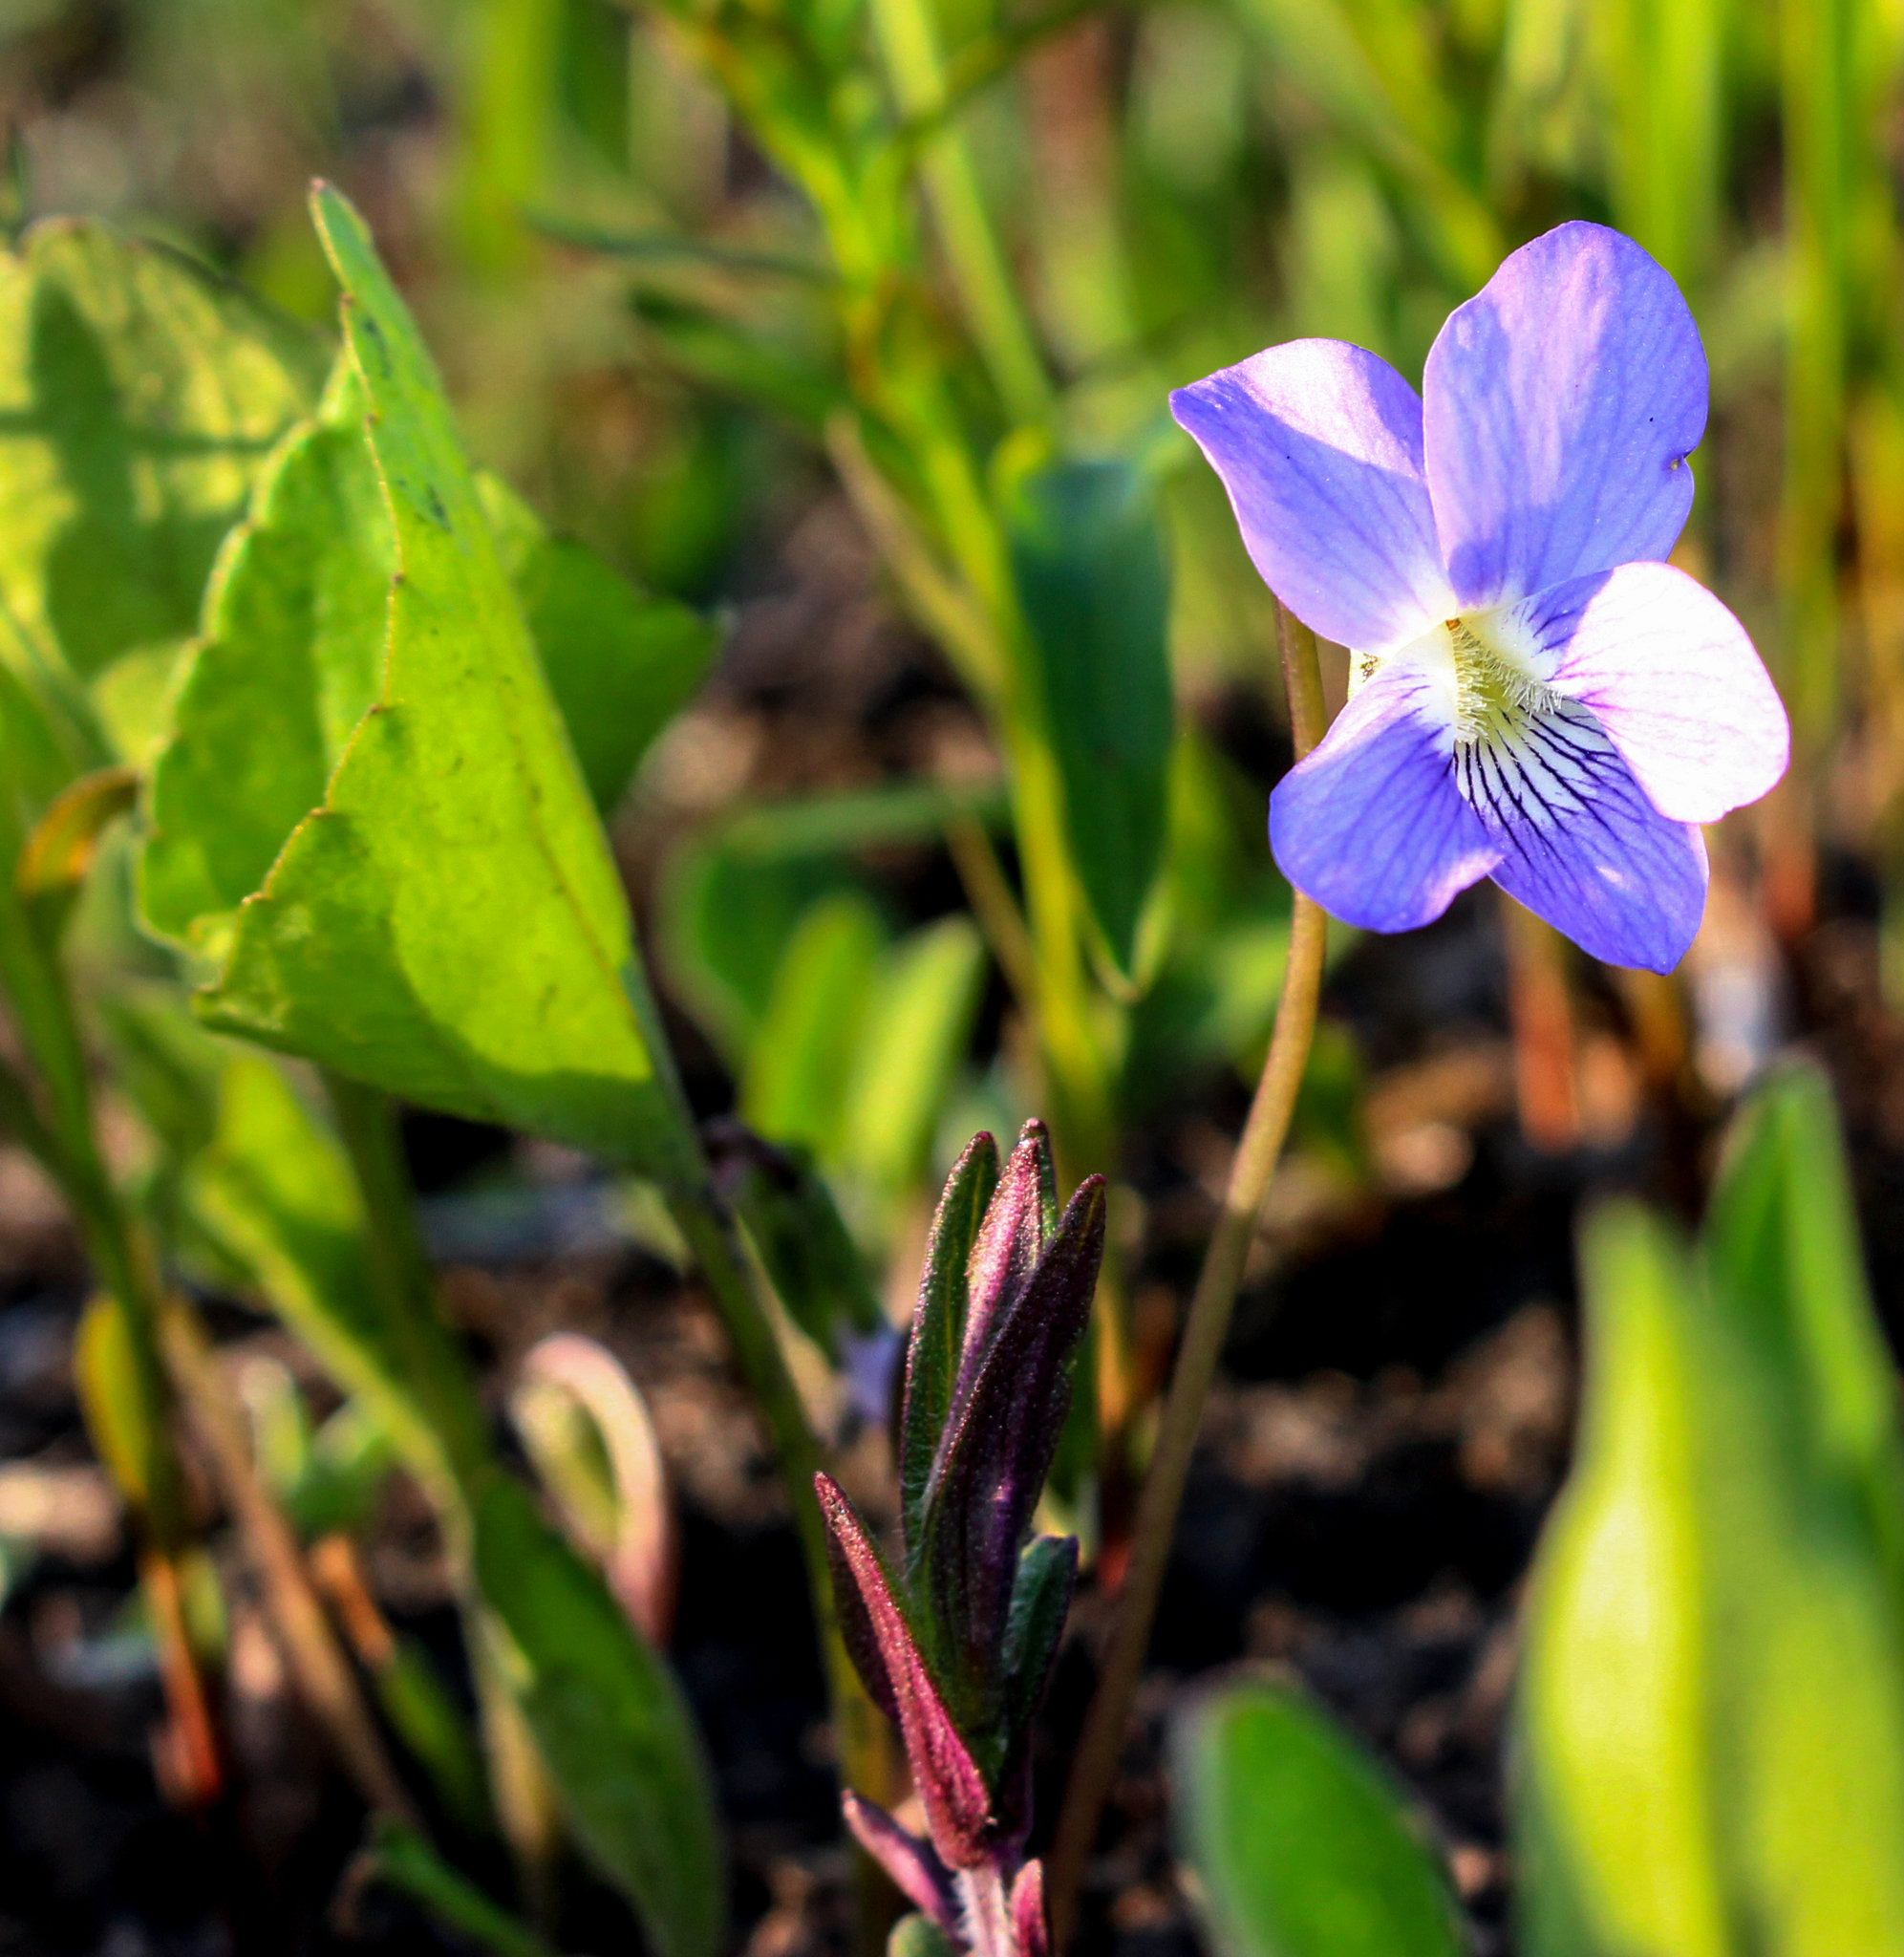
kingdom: Plantae
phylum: Tracheophyta
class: Magnoliopsida
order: Malpighiales
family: Violaceae
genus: Viola
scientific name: Viola cucullata
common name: Marsh blue violet
